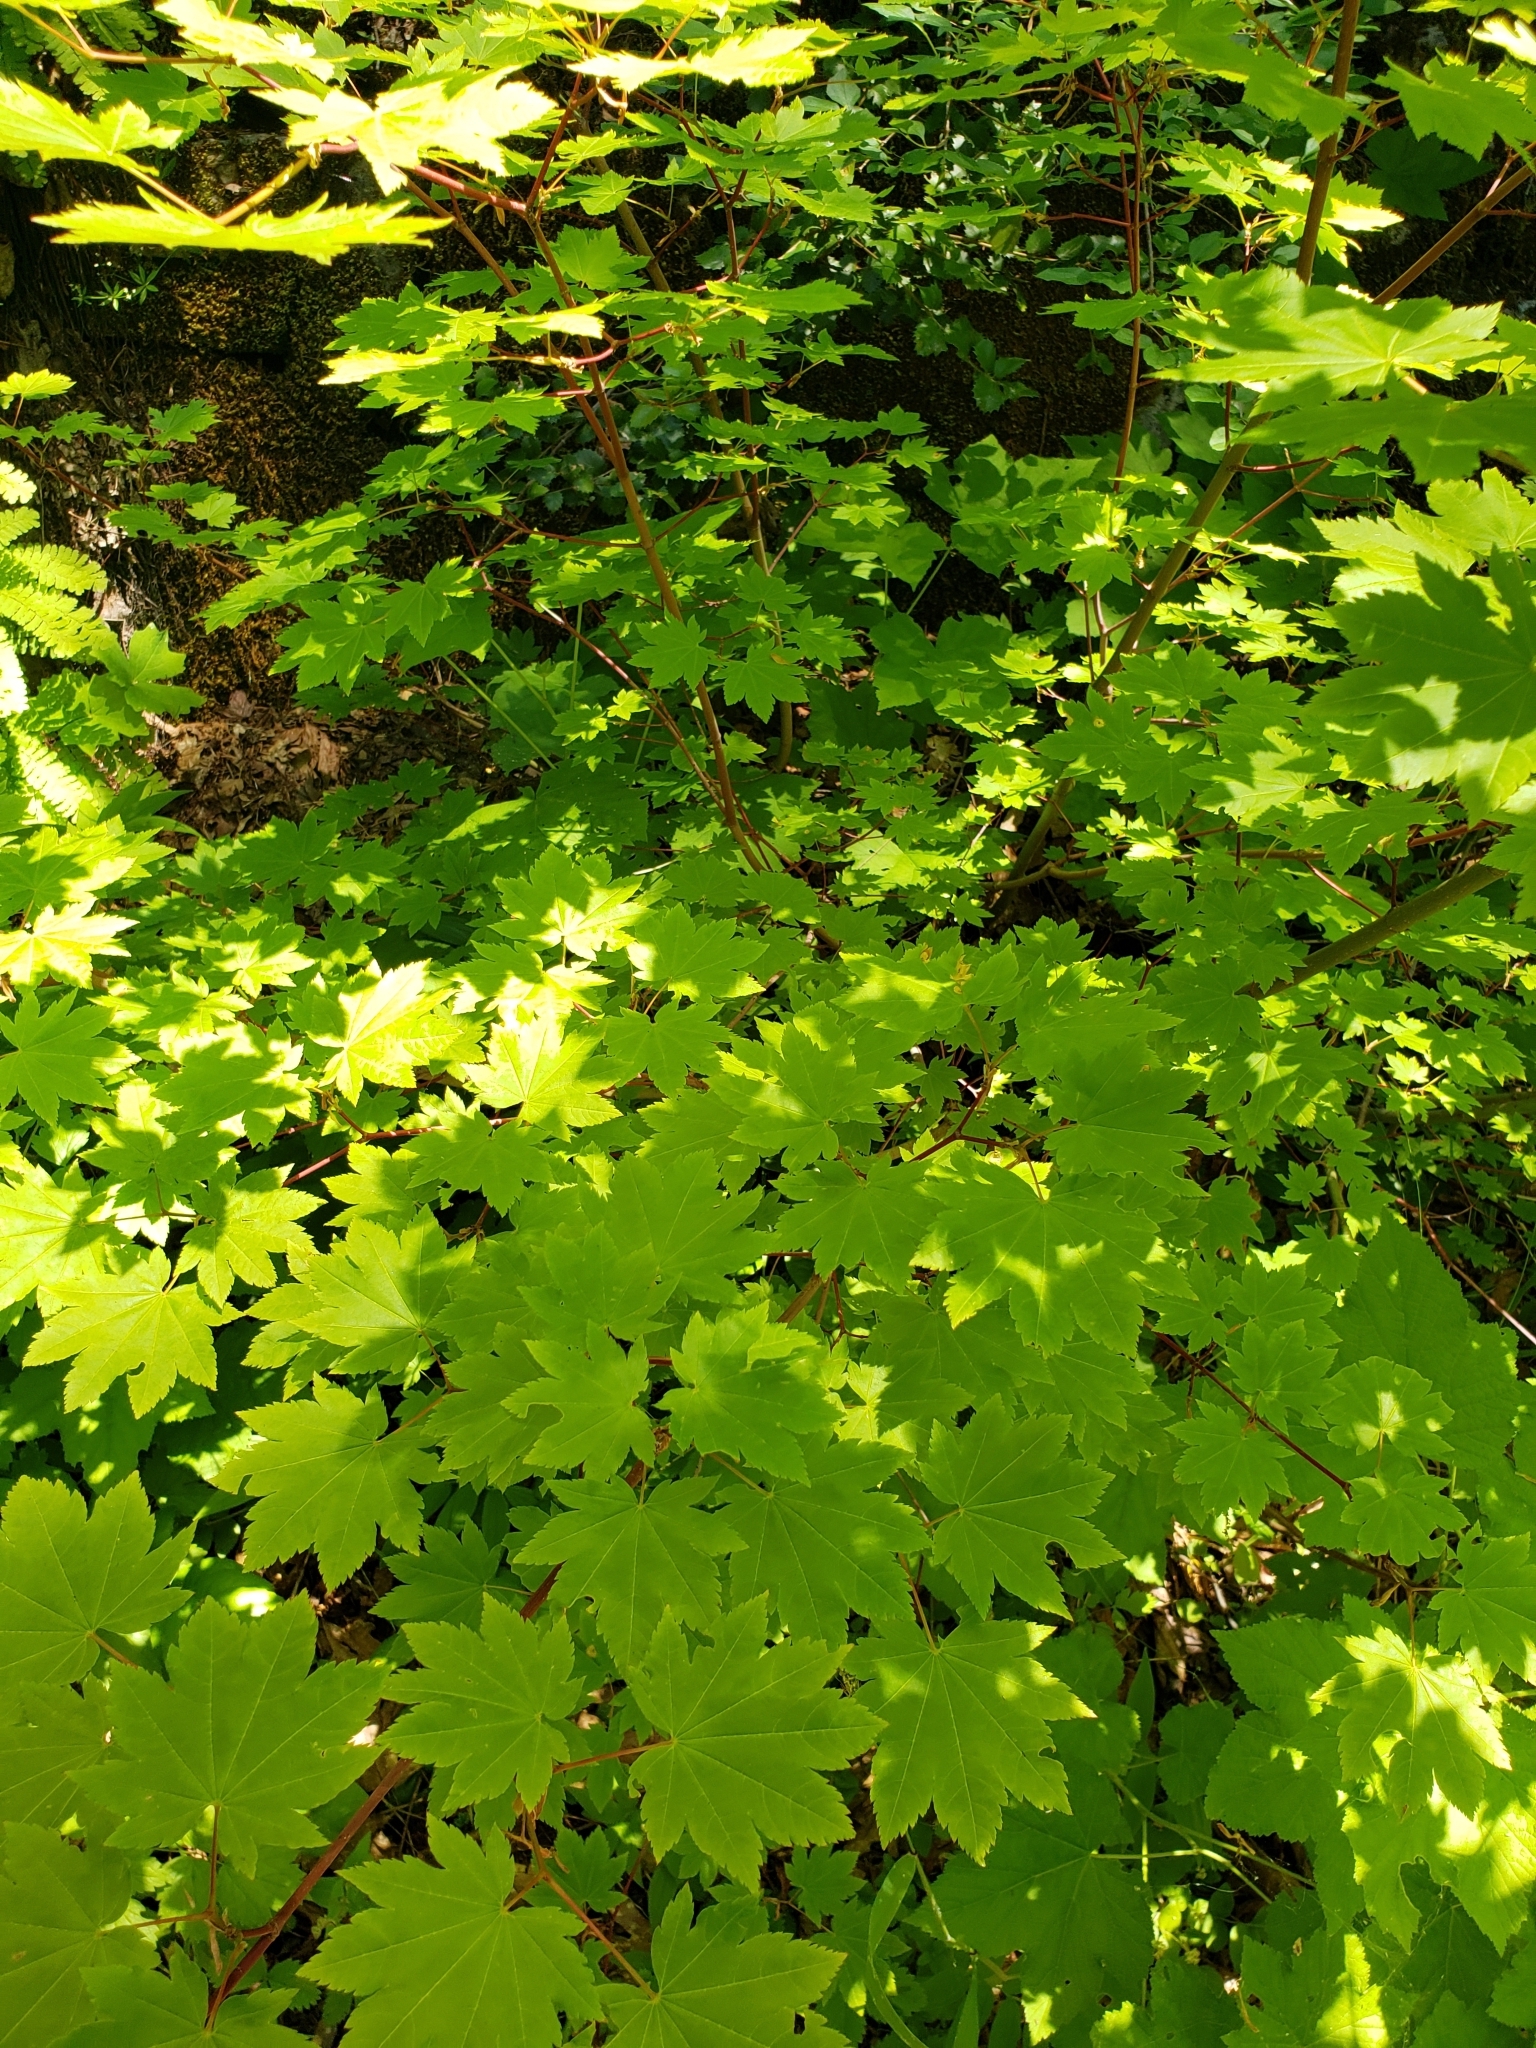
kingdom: Plantae
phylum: Tracheophyta
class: Magnoliopsida
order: Sapindales
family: Sapindaceae
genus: Acer
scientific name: Acer circinatum
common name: Vine maple
